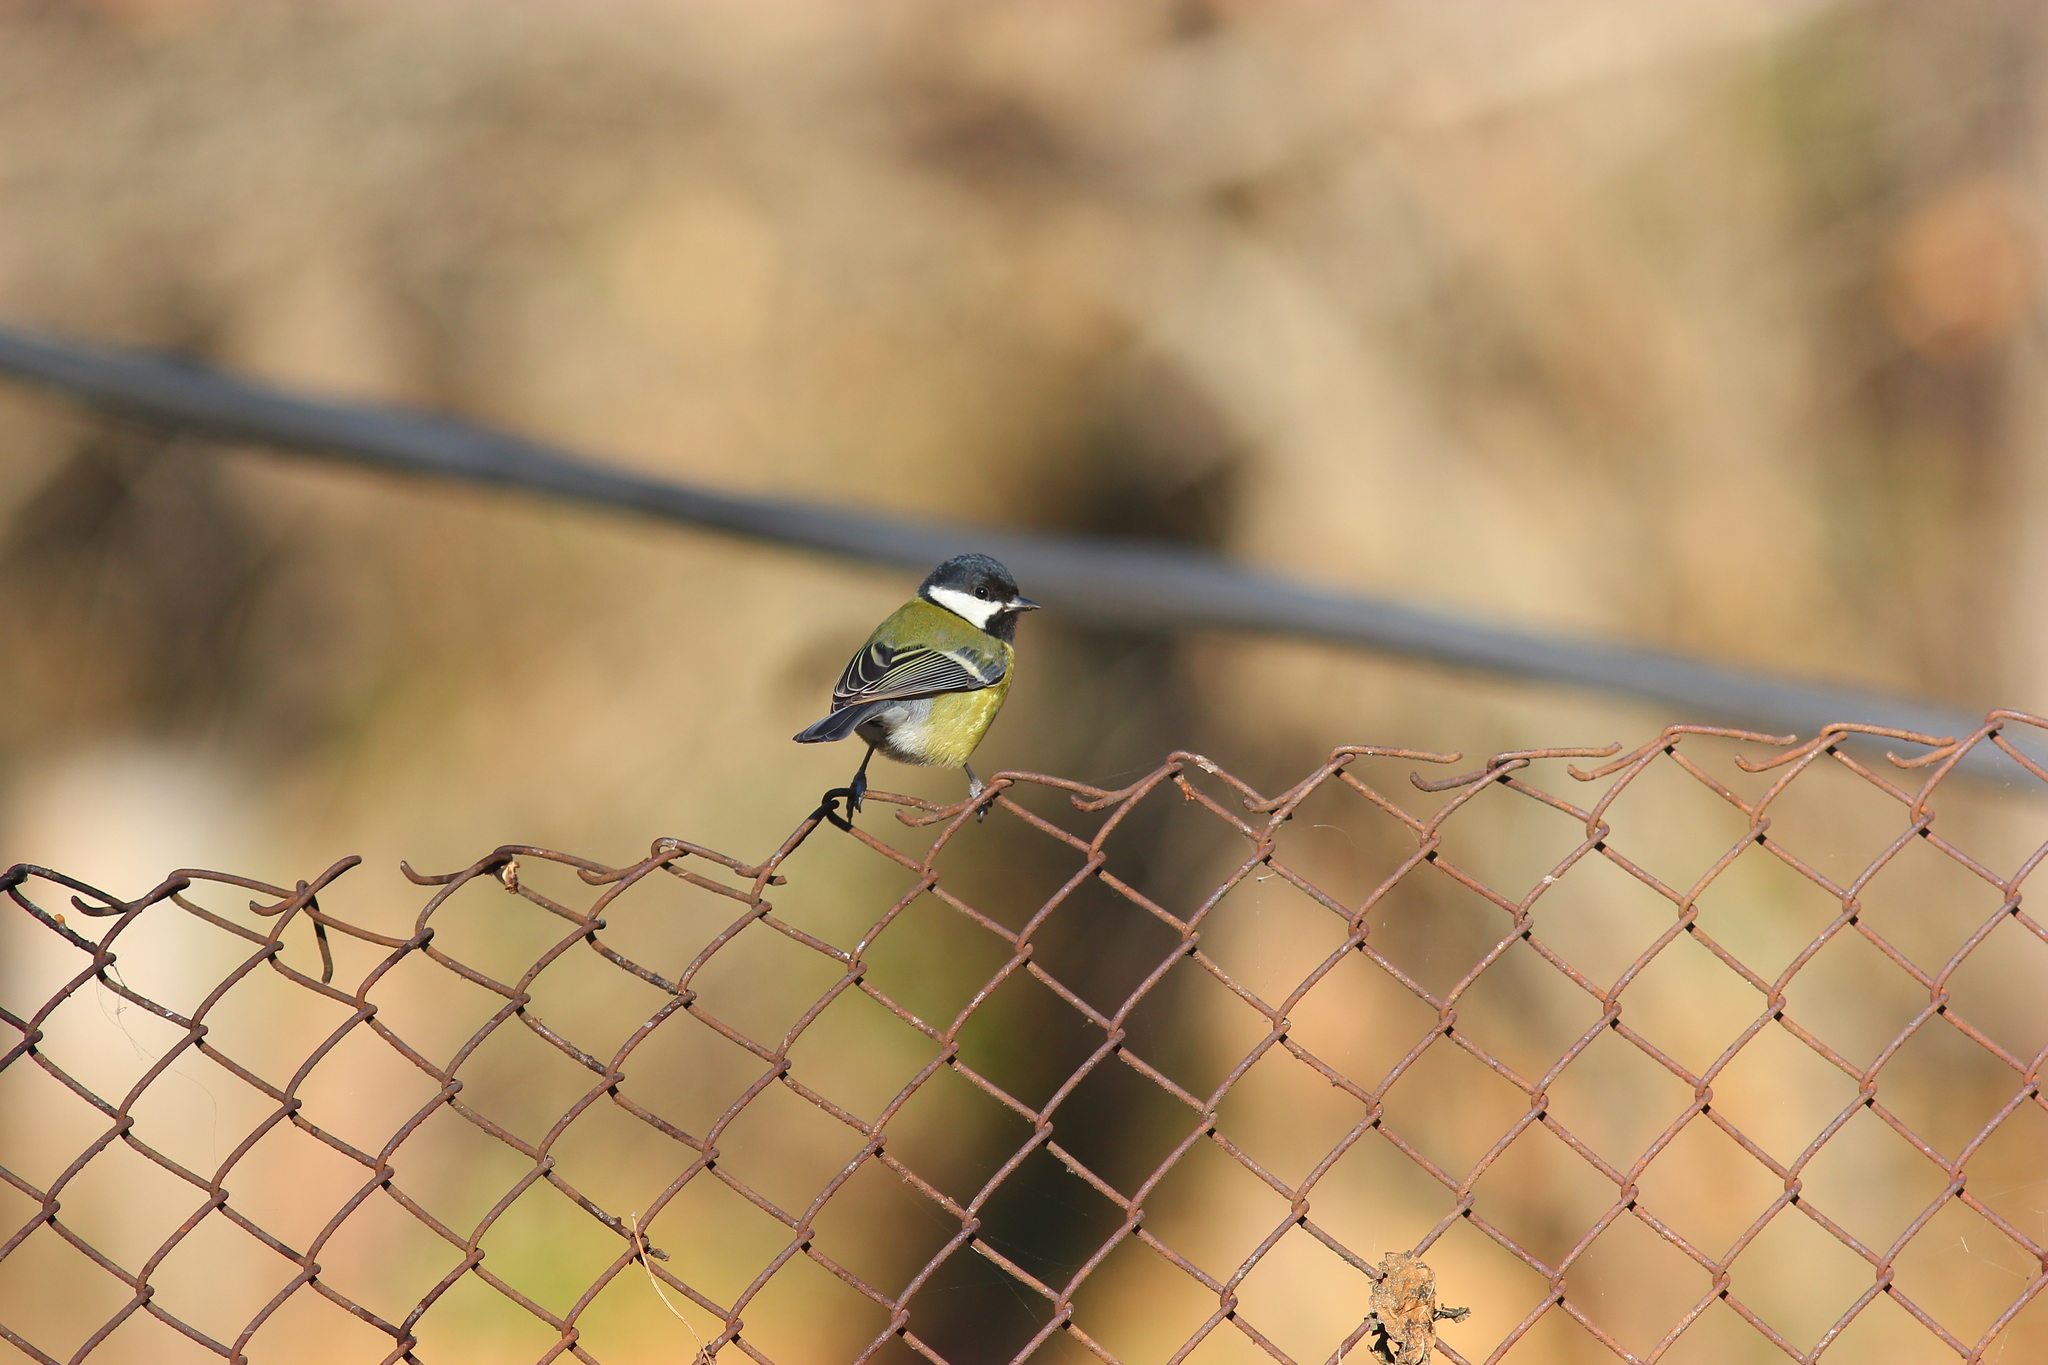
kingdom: Animalia
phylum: Chordata
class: Aves
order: Passeriformes
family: Paridae
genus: Parus
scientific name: Parus major
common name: Great tit
